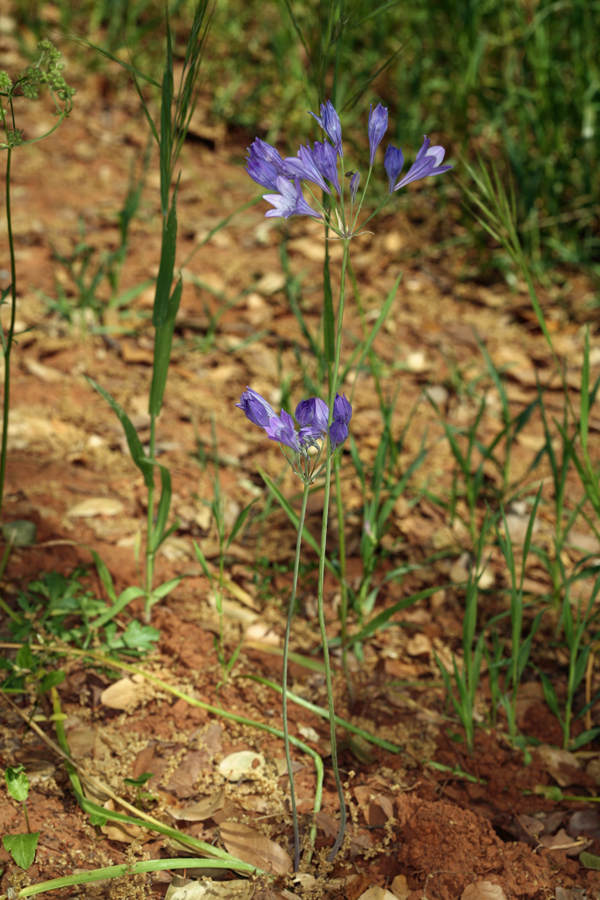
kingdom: Plantae
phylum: Tracheophyta
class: Liliopsida
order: Asparagales
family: Asparagaceae
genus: Triteleia
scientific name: Triteleia laxa
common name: Triplet-lily
